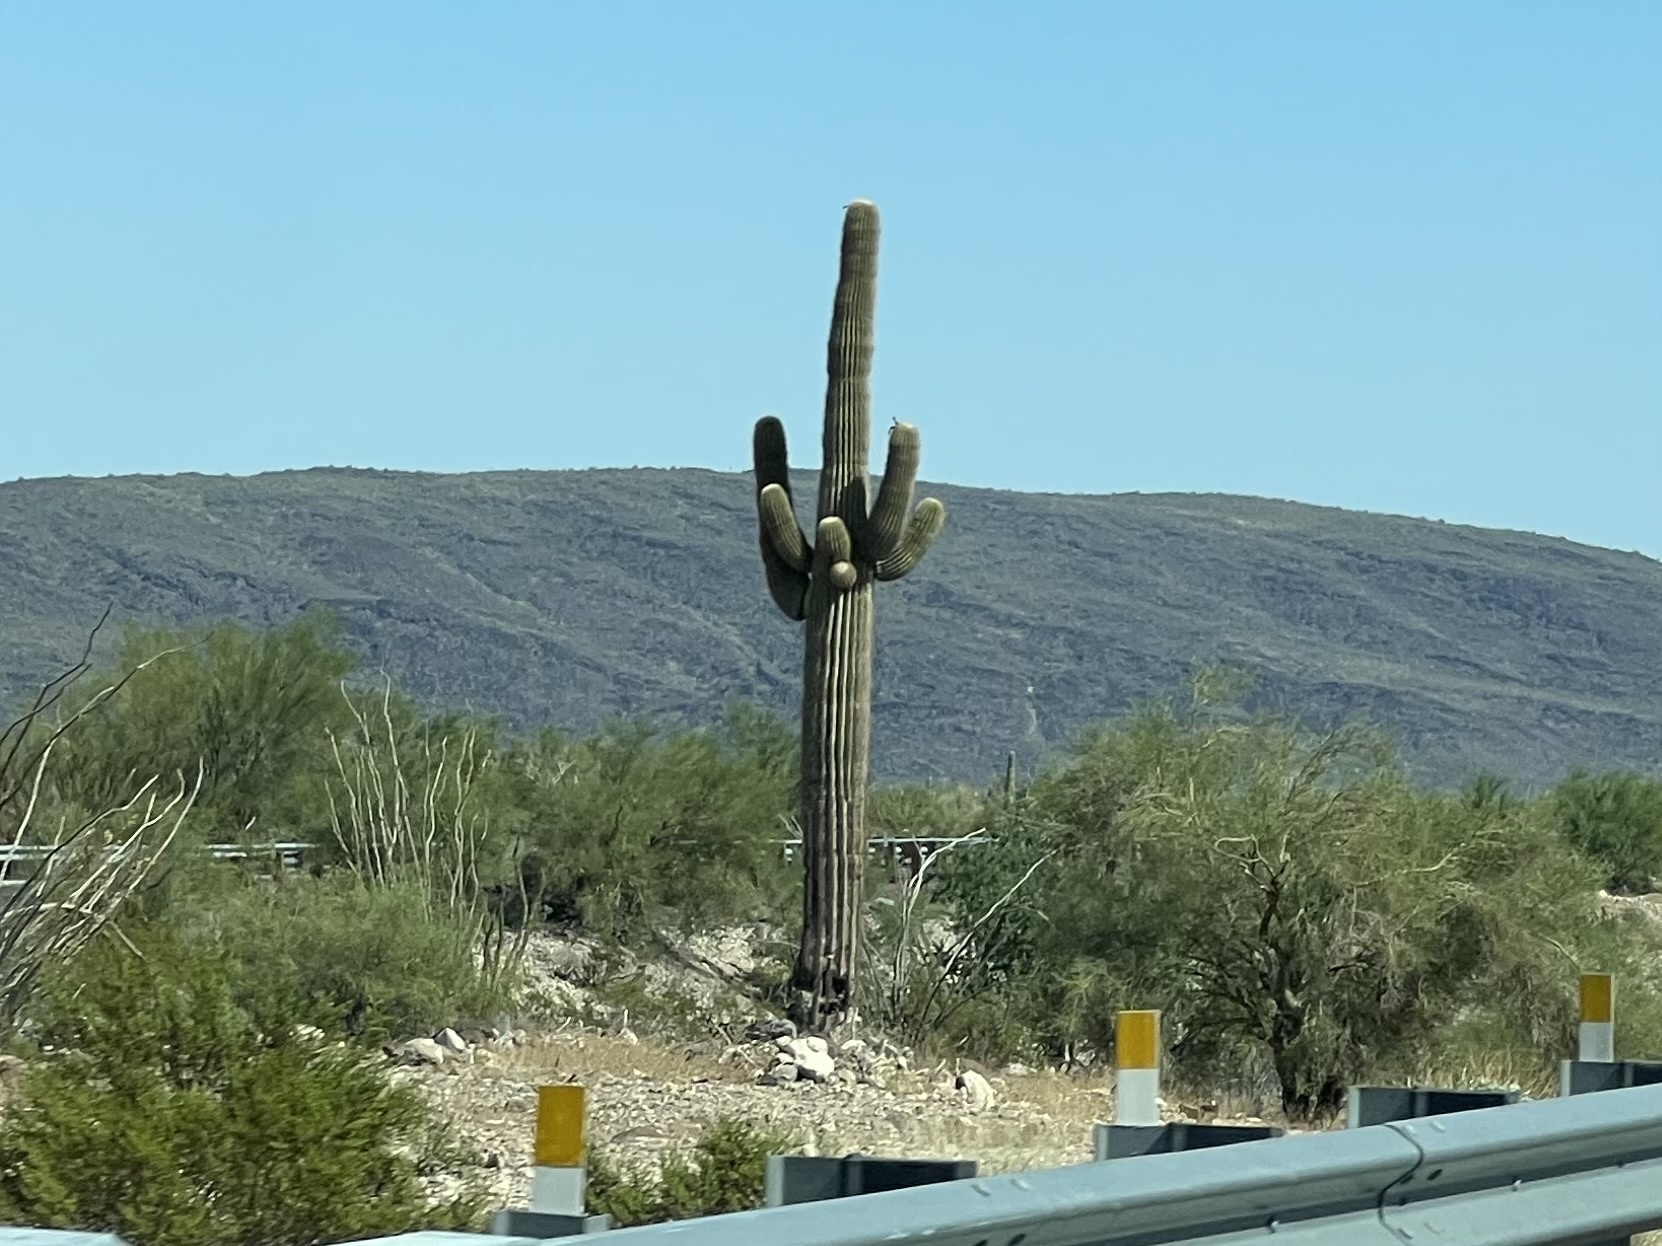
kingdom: Plantae
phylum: Tracheophyta
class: Magnoliopsida
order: Caryophyllales
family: Cactaceae
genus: Carnegiea
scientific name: Carnegiea gigantea
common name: Saguaro
